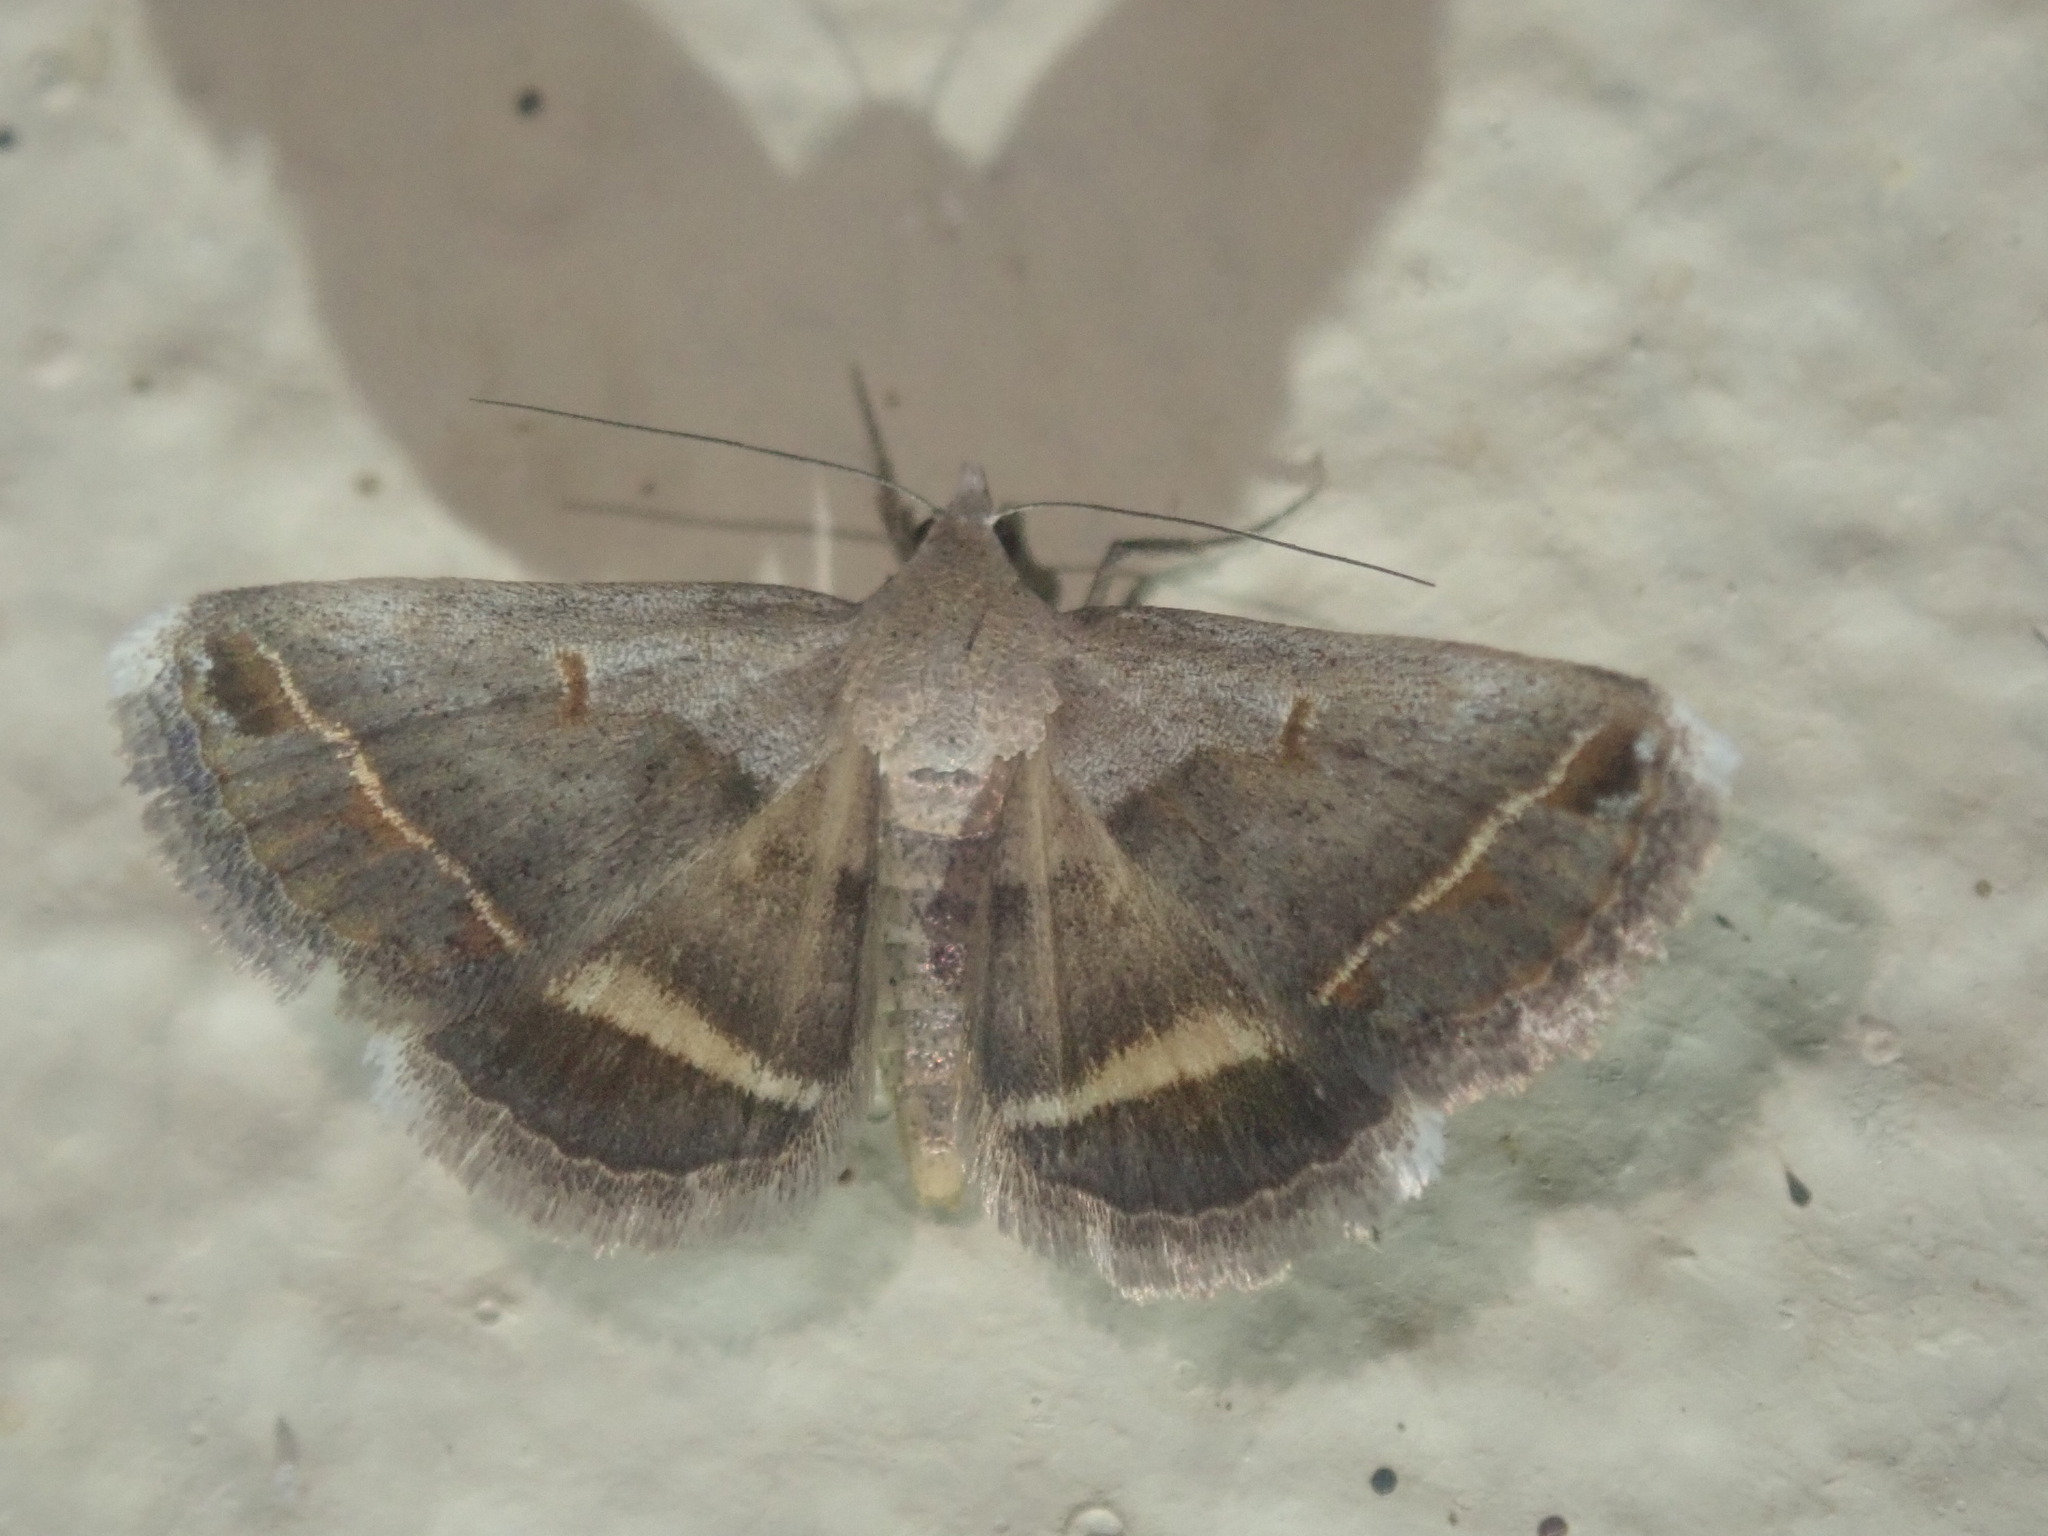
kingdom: Animalia
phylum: Arthropoda
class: Insecta
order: Lepidoptera
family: Erebidae
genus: Acantholipes
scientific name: Acantholipes trimeni
